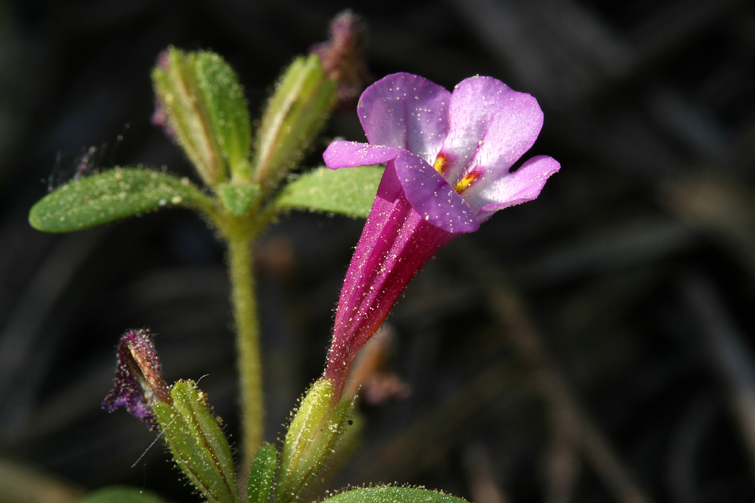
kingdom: Plantae
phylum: Tracheophyta
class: Magnoliopsida
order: Lamiales
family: Phrymaceae
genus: Diplacus
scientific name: Diplacus torreyi
